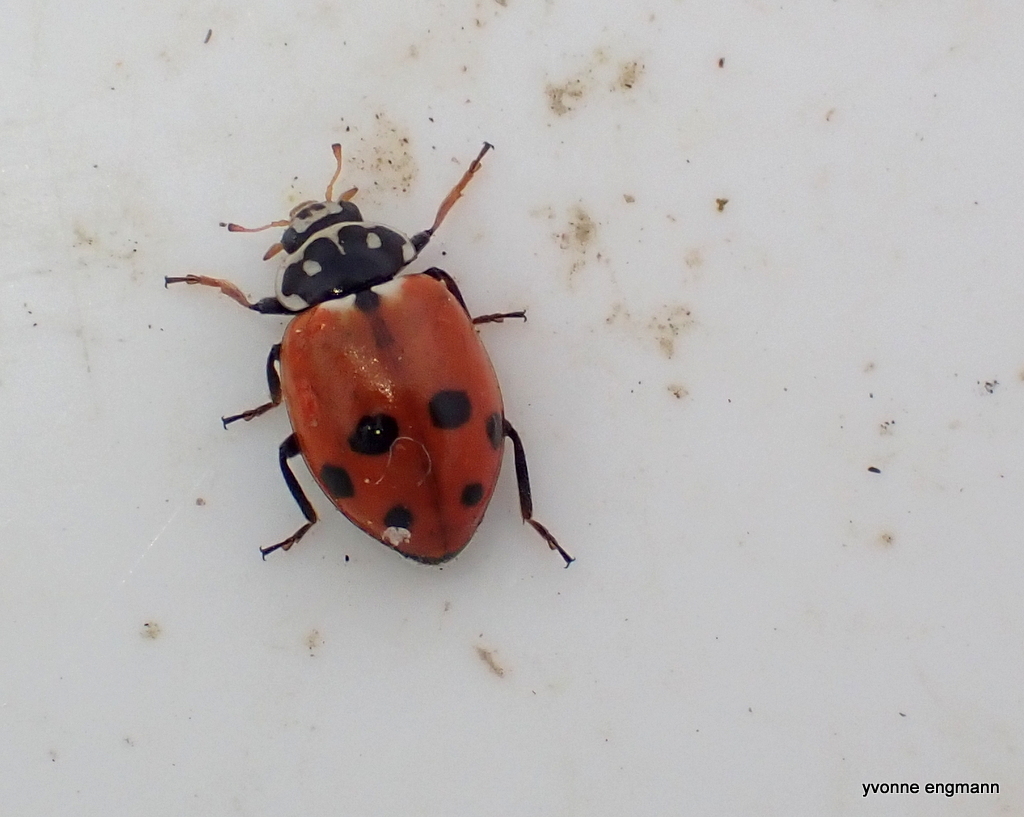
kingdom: Animalia
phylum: Arthropoda
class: Insecta
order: Coleoptera
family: Coccinellidae
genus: Hippodamia
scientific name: Hippodamia variegata
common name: Ladybird beetle
